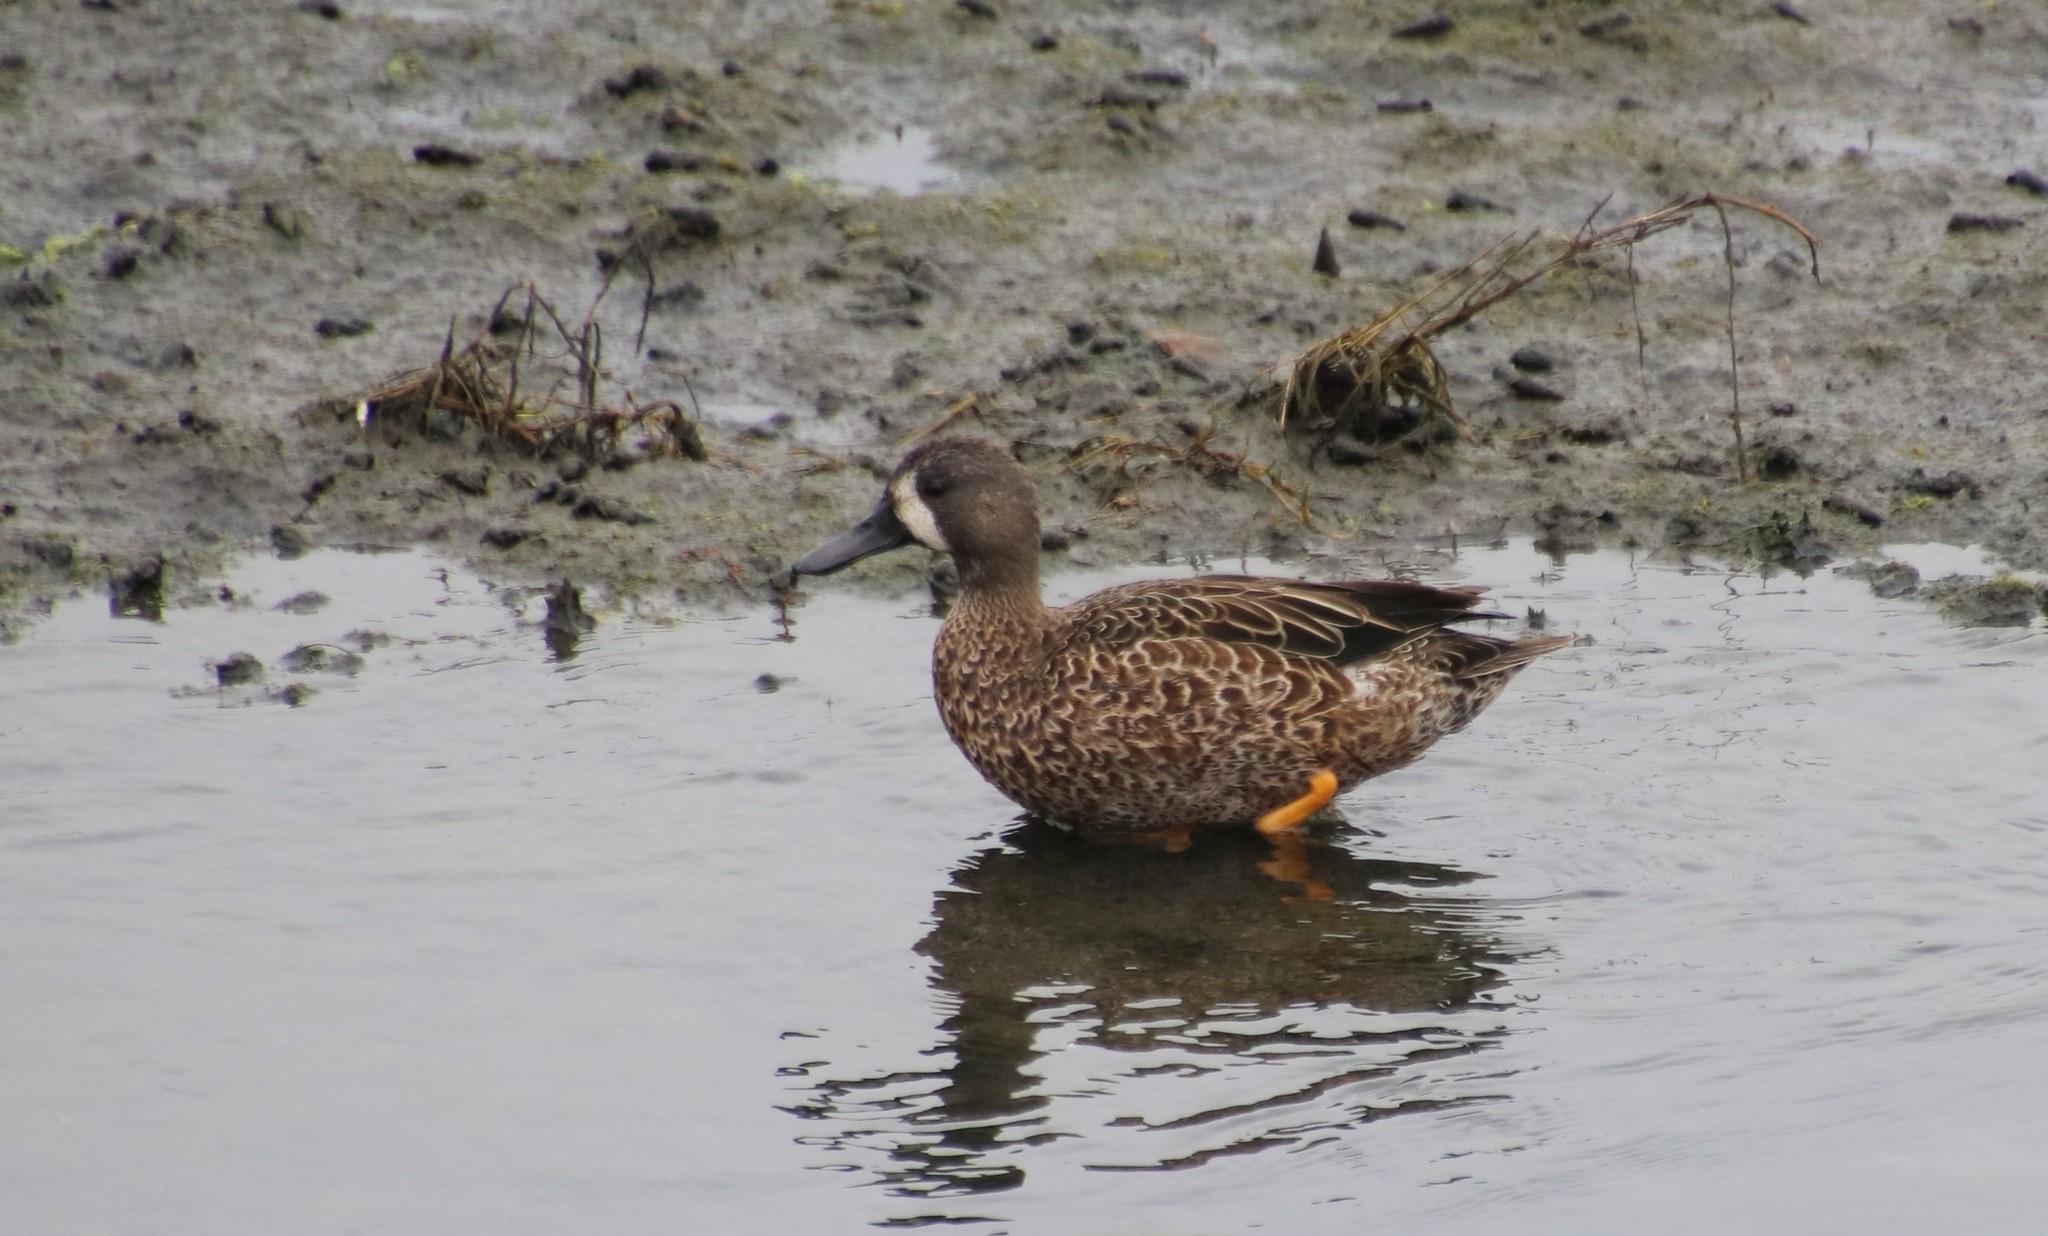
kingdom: Animalia
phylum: Chordata
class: Aves
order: Anseriformes
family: Anatidae
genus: Spatula
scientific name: Spatula discors
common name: Blue-winged teal
